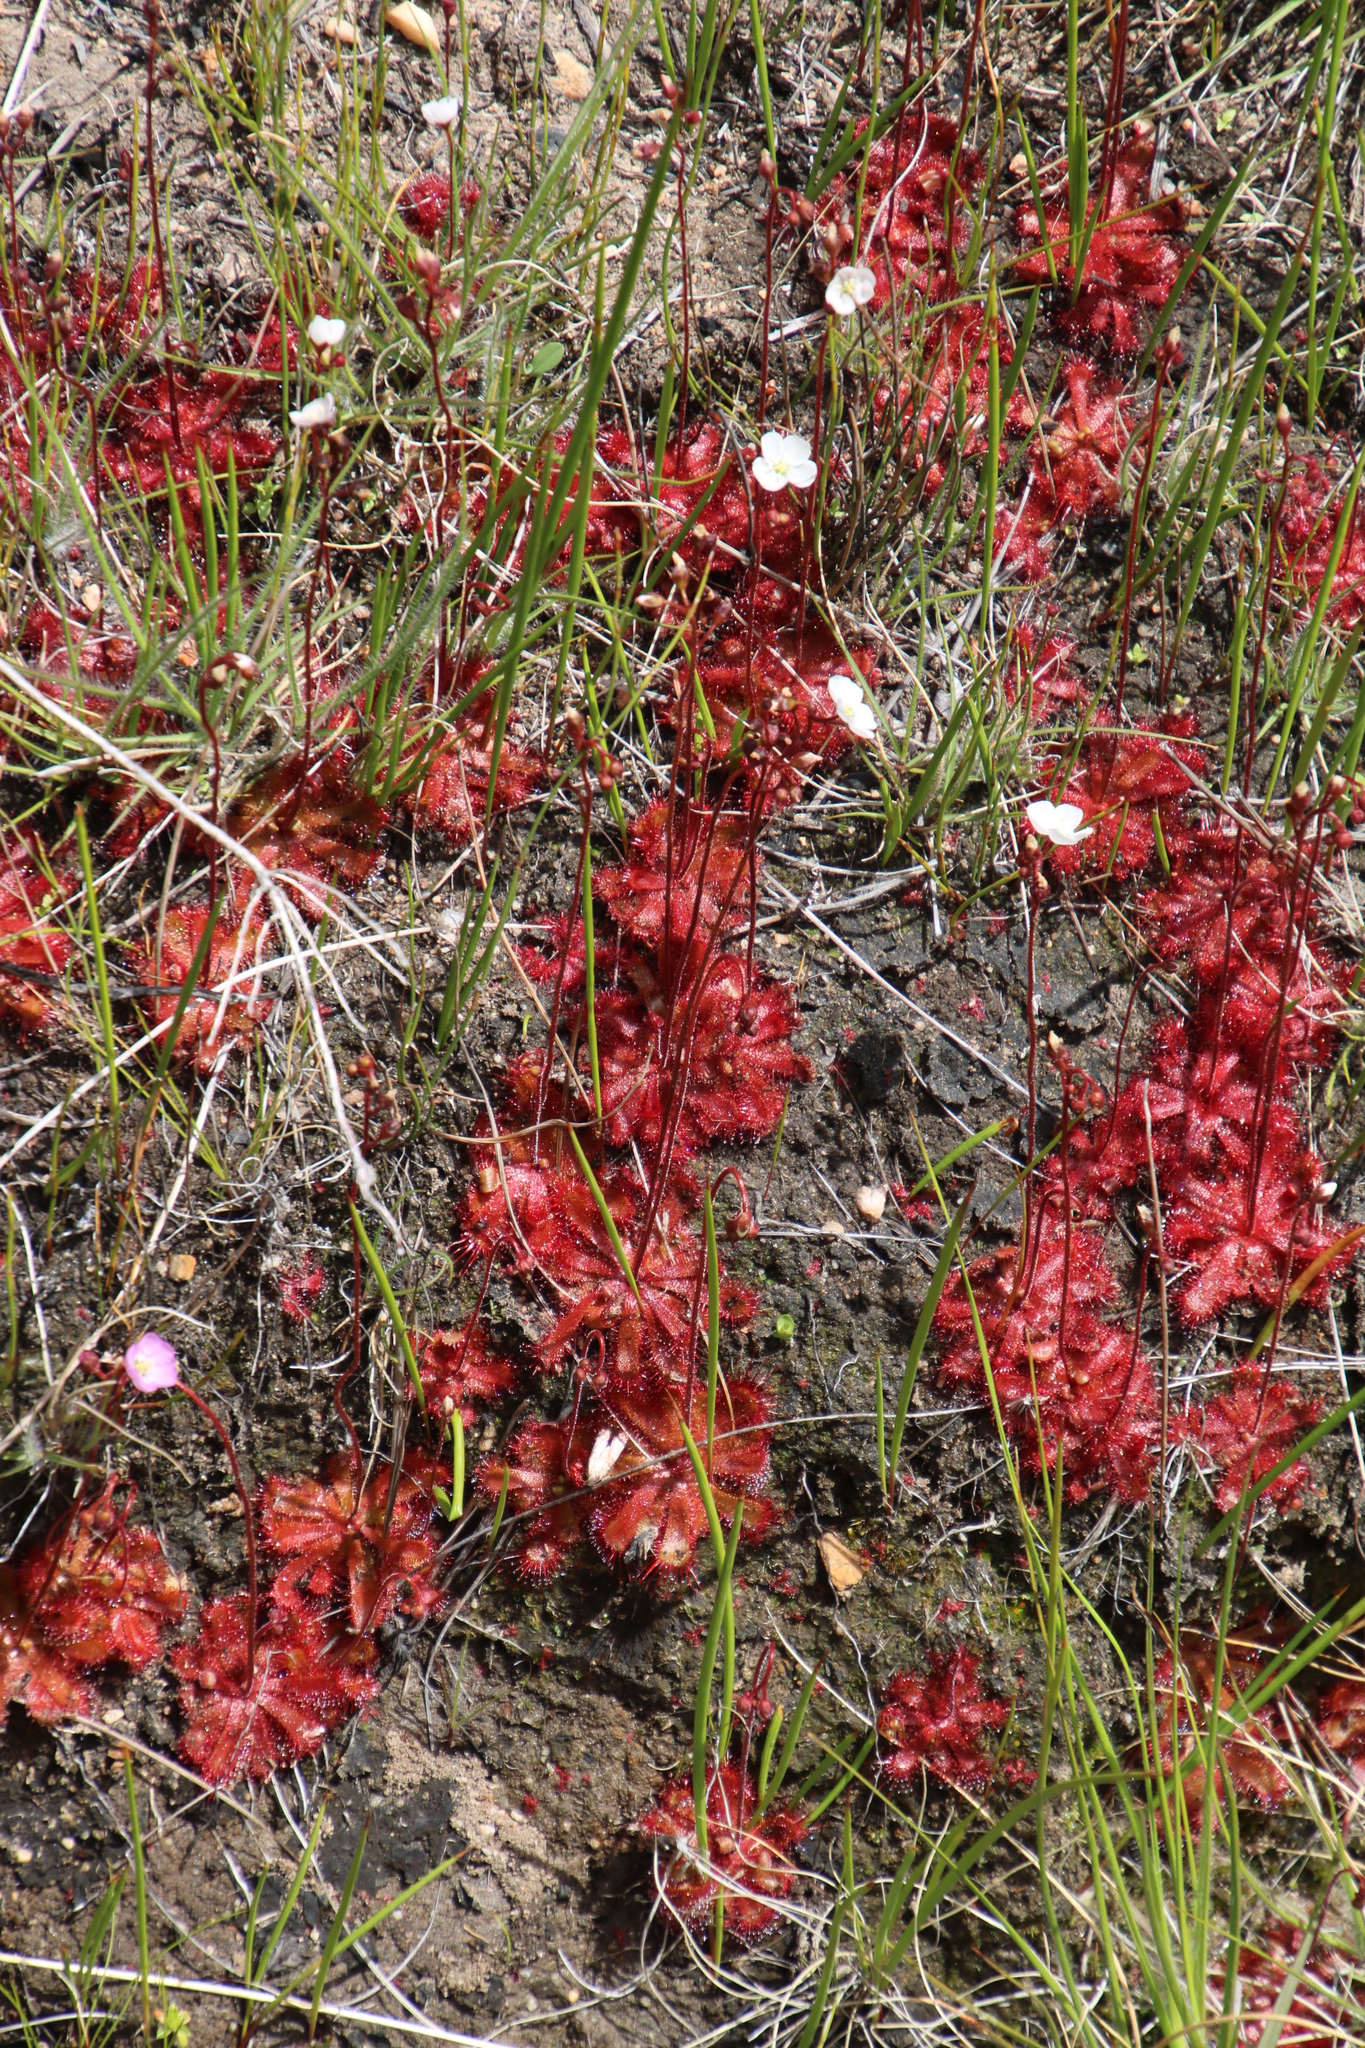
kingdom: Plantae
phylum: Tracheophyta
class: Magnoliopsida
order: Caryophyllales
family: Droseraceae
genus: Drosera
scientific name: Drosera trinervia
